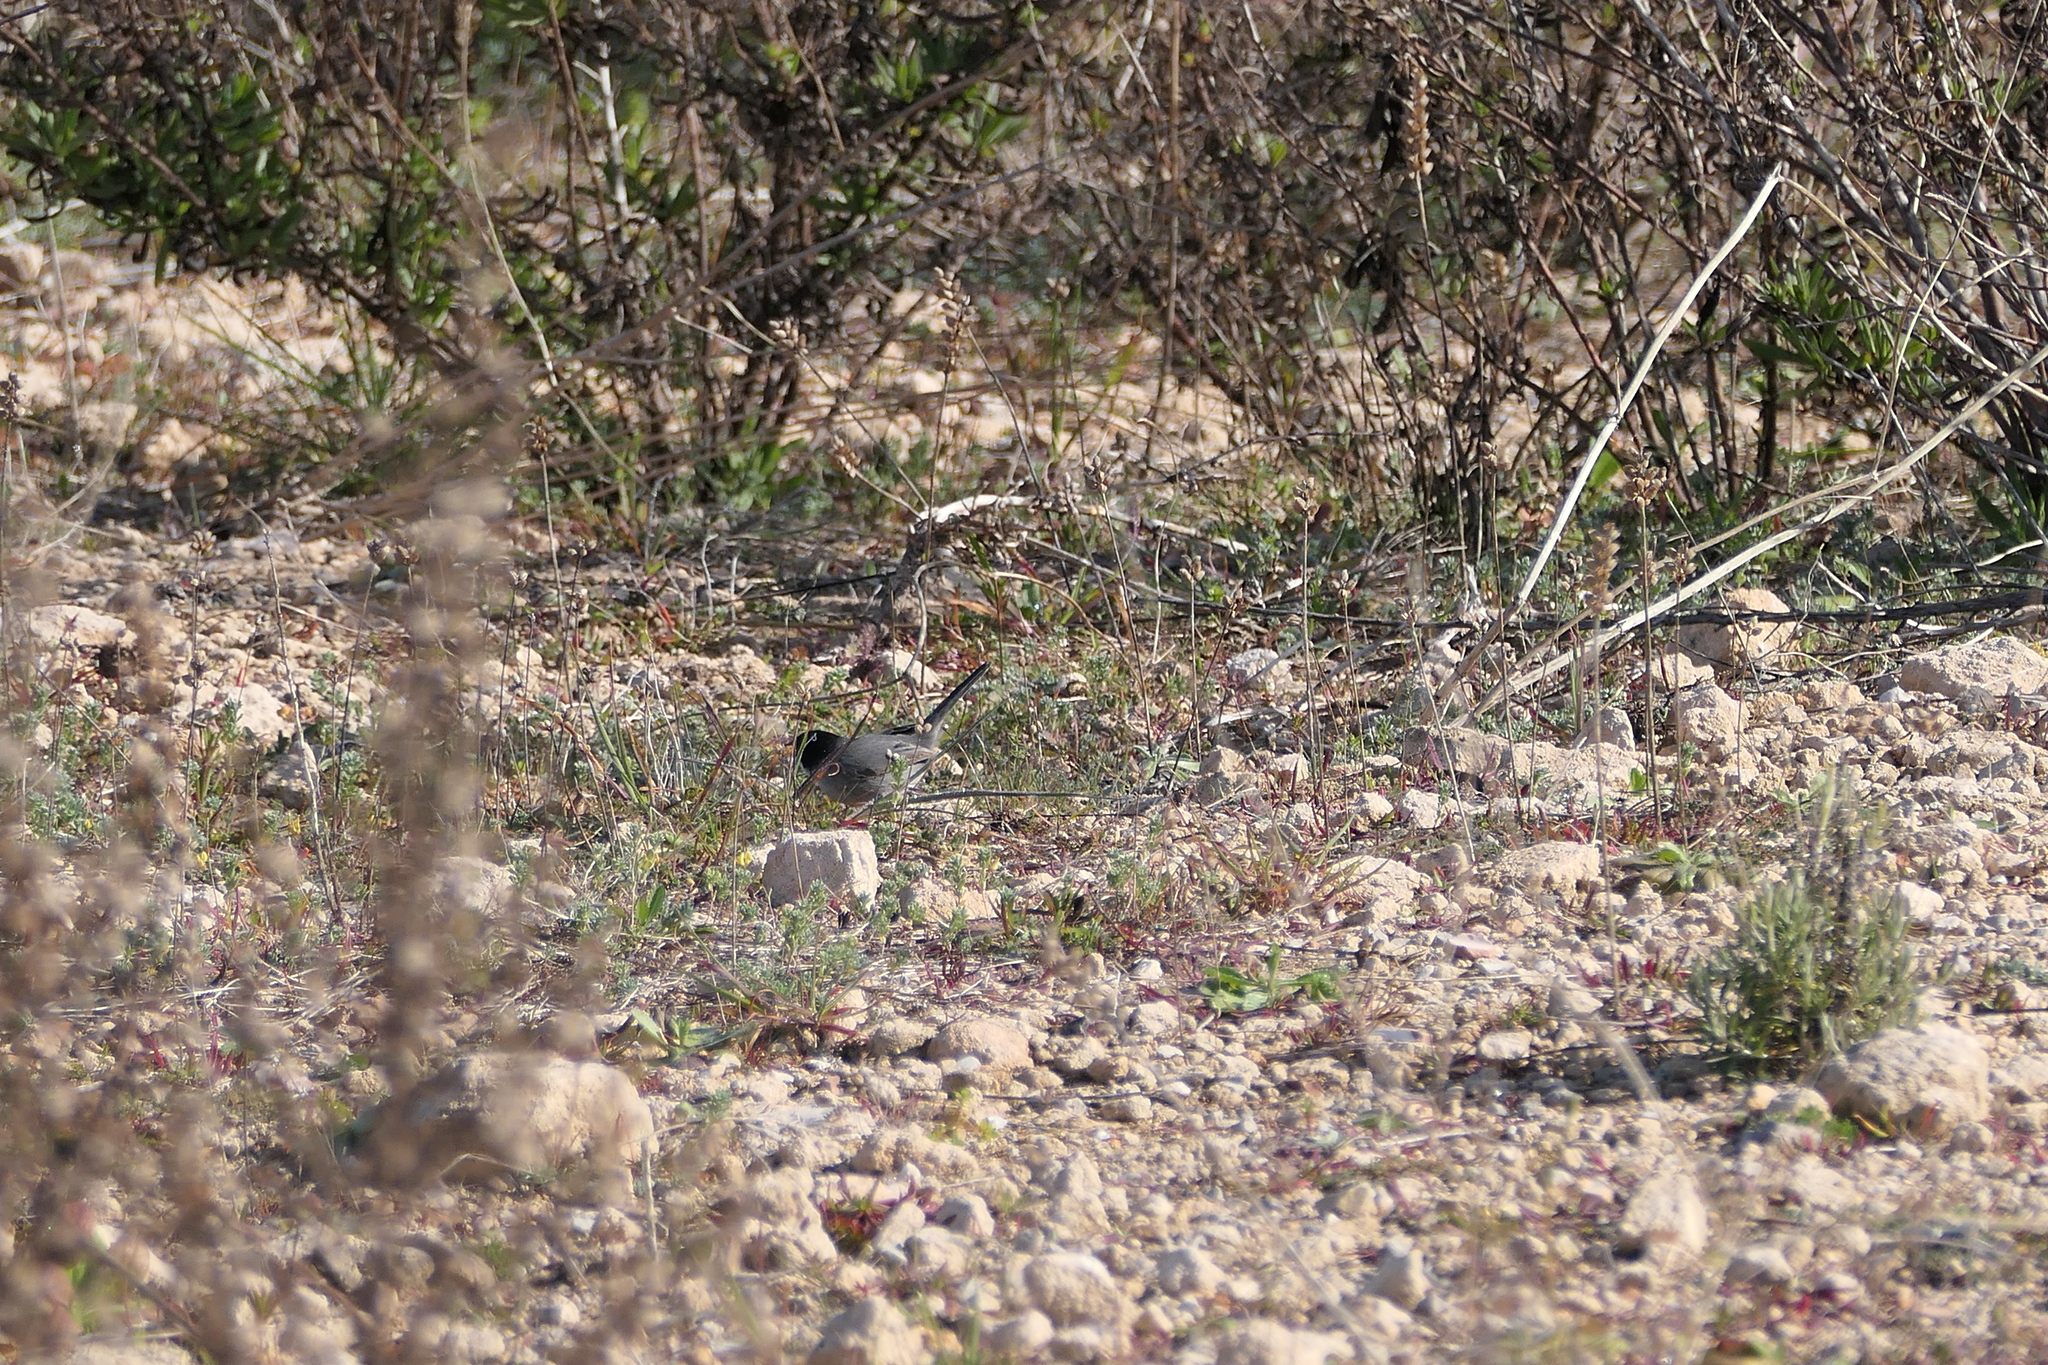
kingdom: Animalia
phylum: Chordata
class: Aves
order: Passeriformes
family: Sylviidae
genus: Curruca
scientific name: Curruca melanocephala
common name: Sardinian warbler
